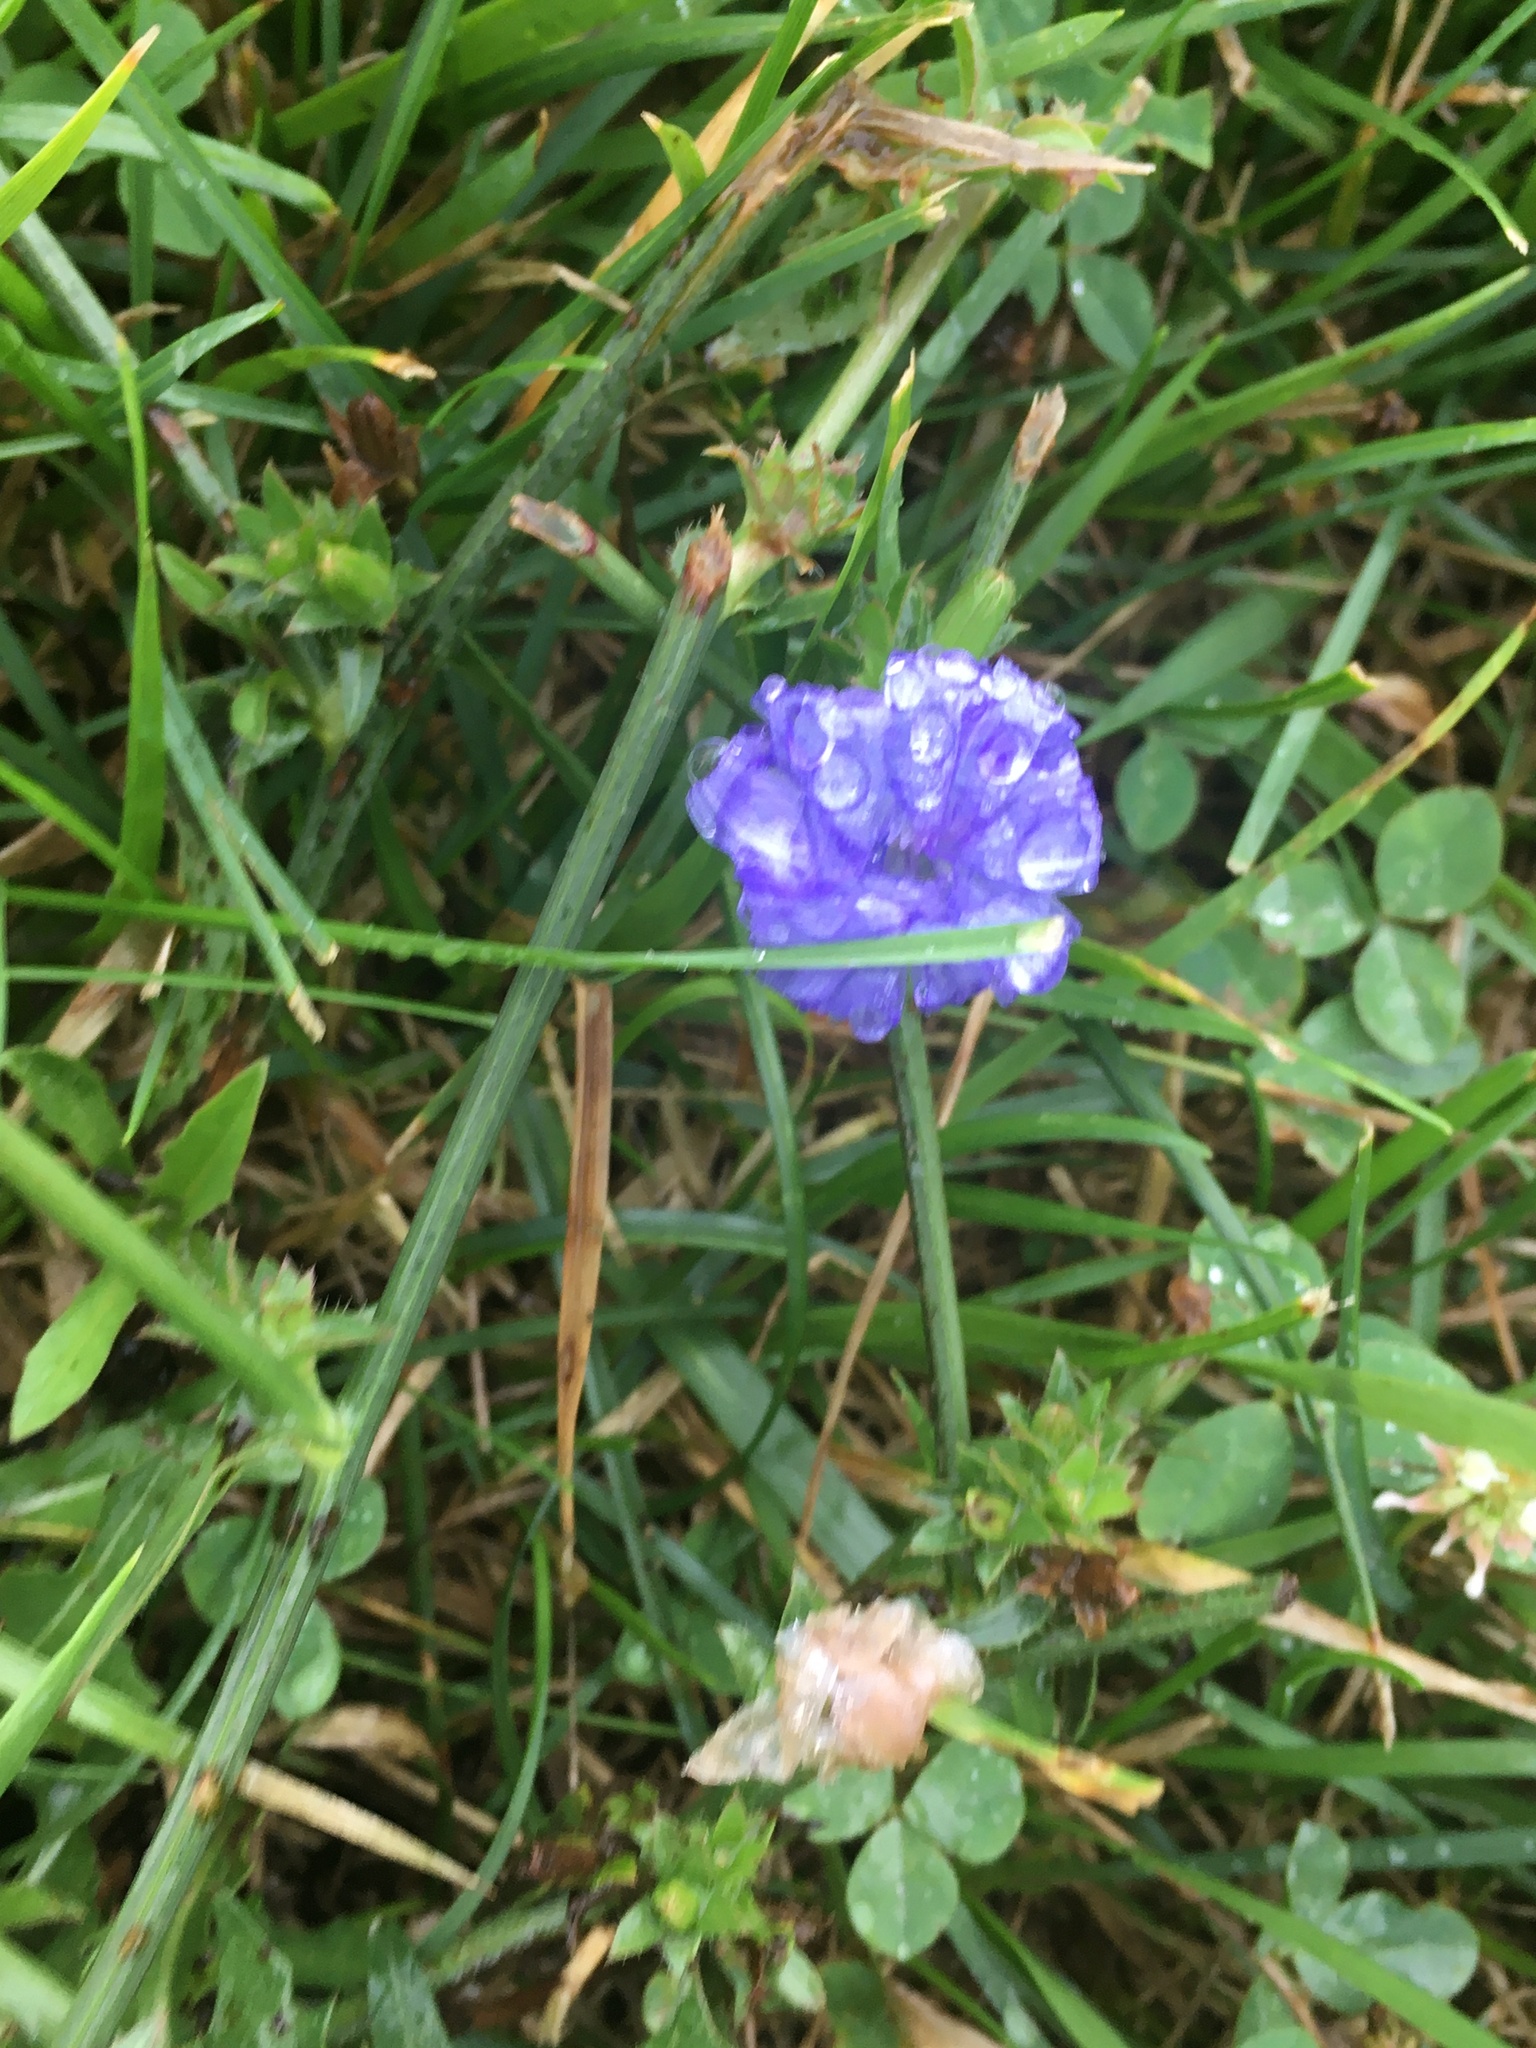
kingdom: Plantae
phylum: Tracheophyta
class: Magnoliopsida
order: Asterales
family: Asteraceae
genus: Cichorium
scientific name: Cichorium intybus
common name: Chicory
